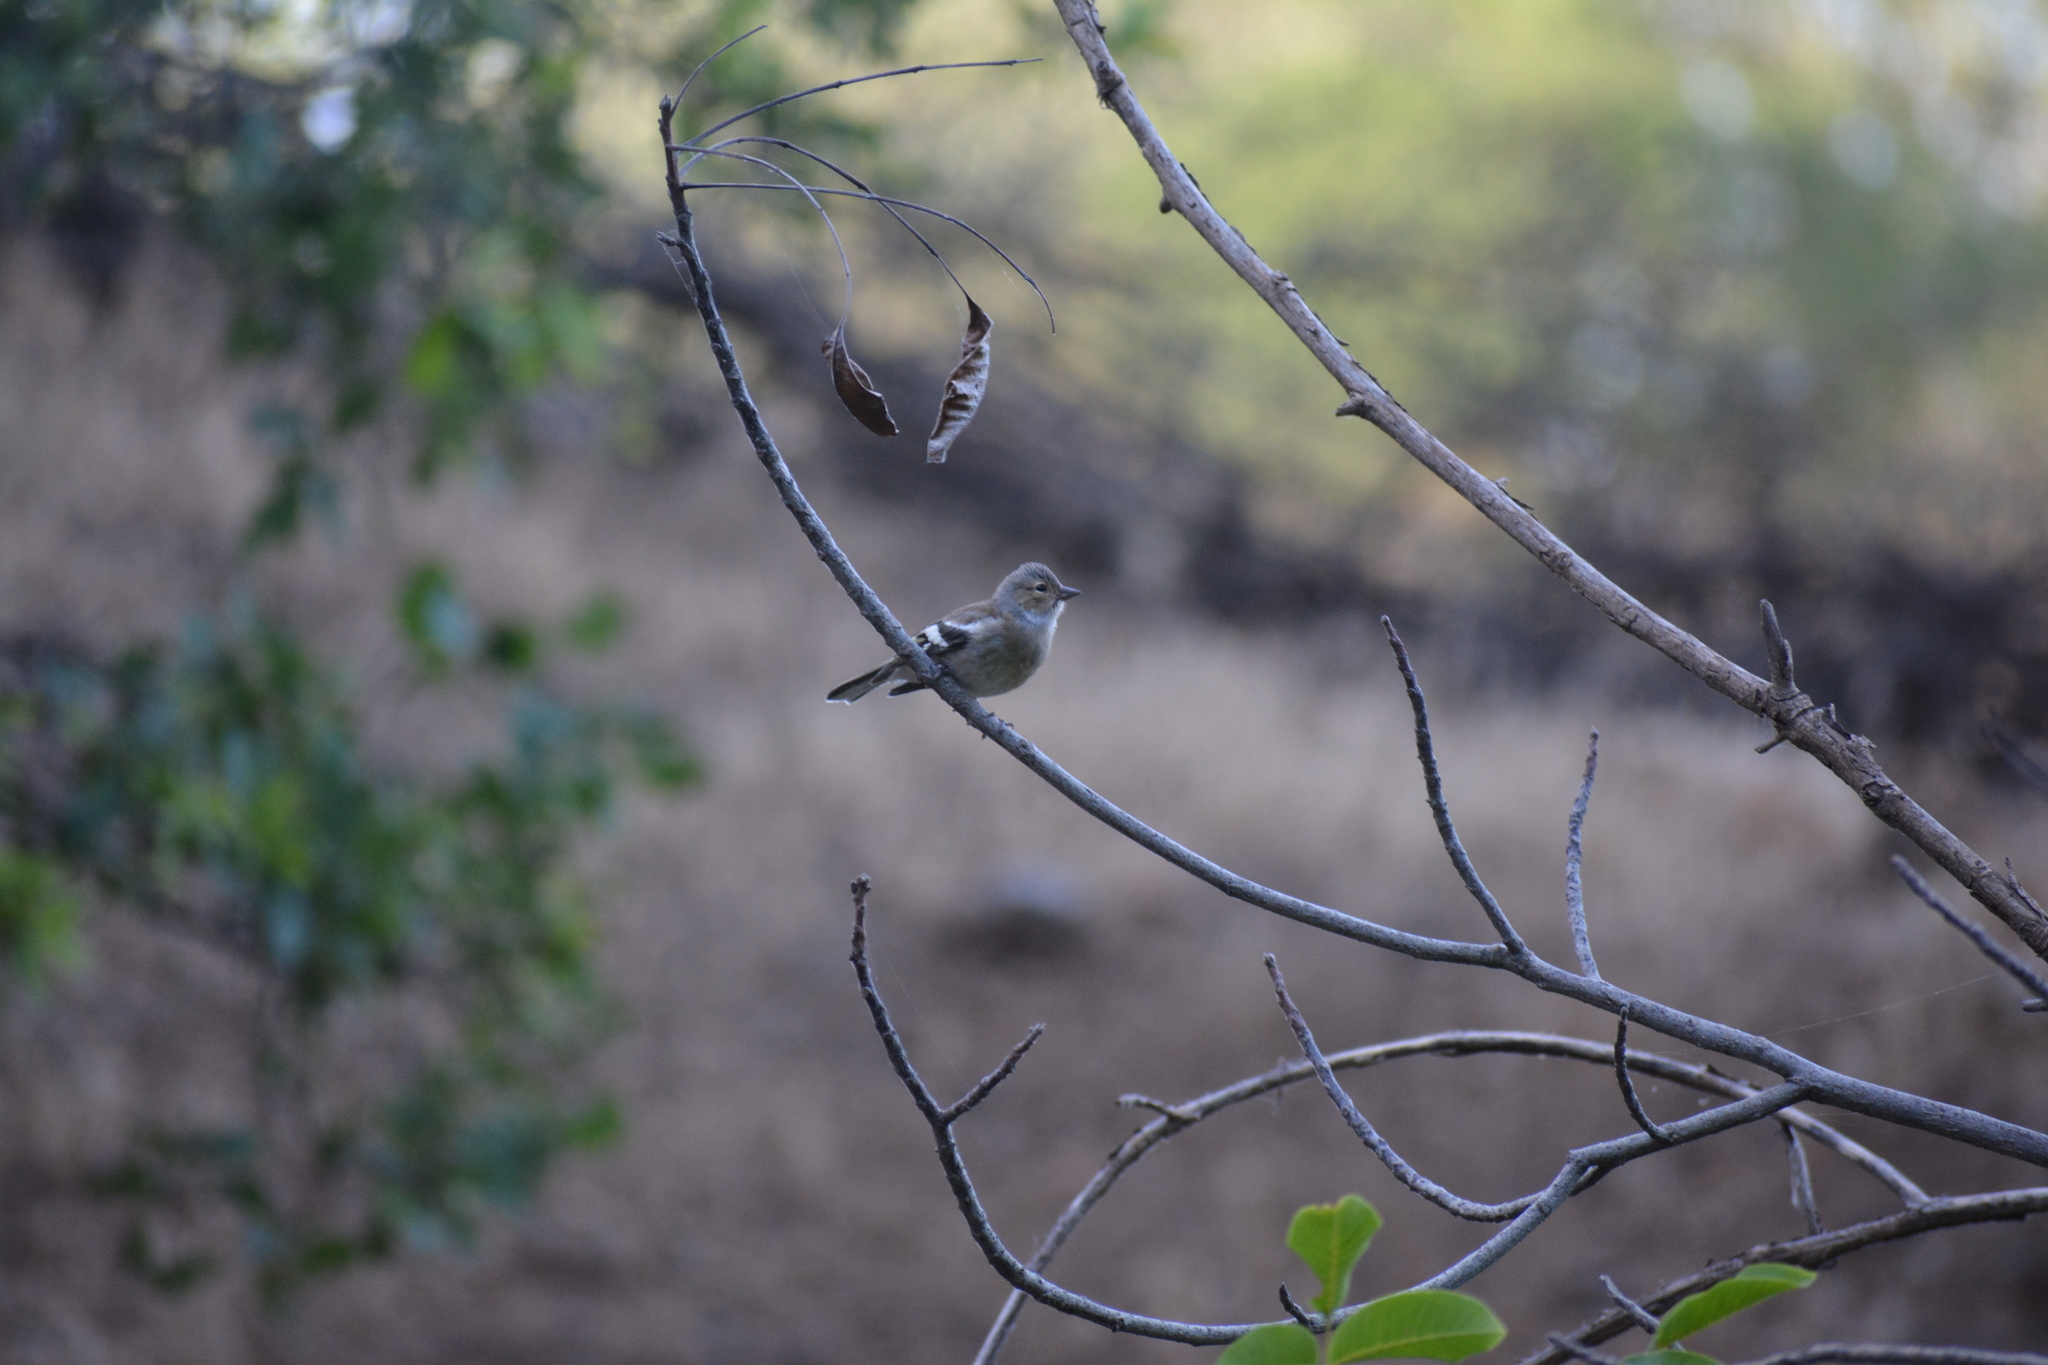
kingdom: Animalia
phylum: Chordata
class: Aves
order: Passeriformes
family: Fringillidae
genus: Fringilla
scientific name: Fringilla coelebs
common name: Common chaffinch
